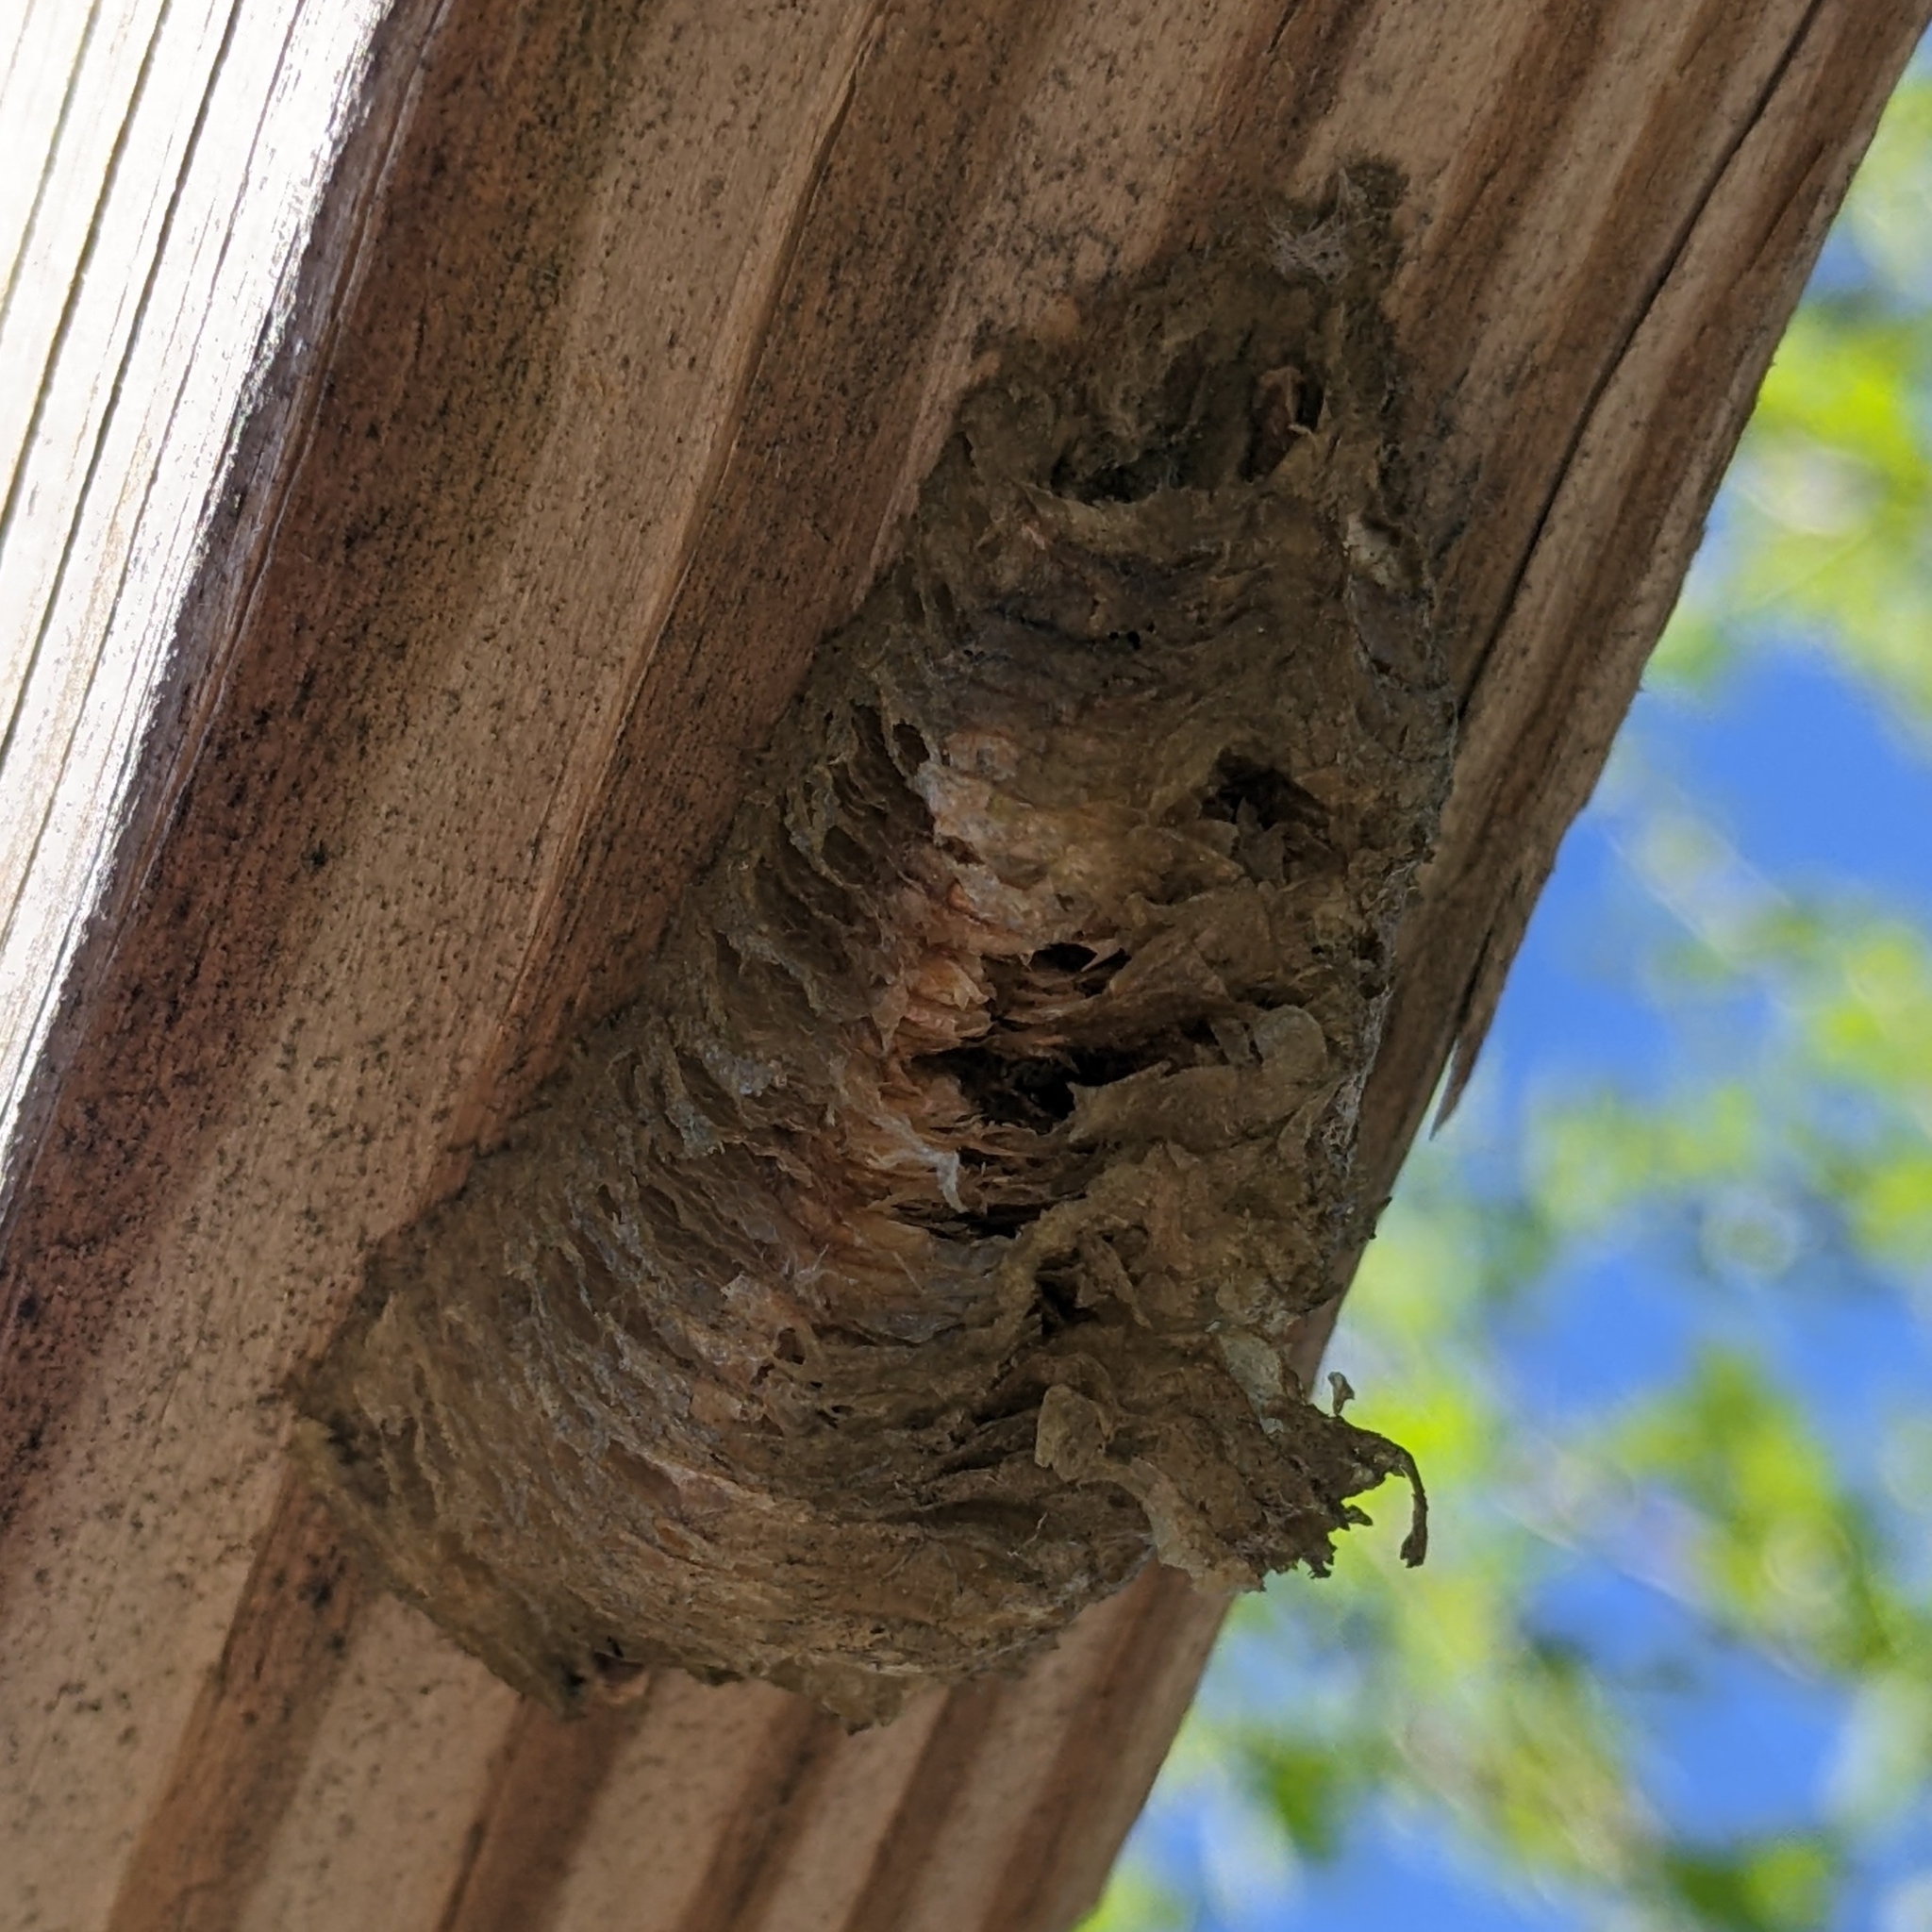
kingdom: Animalia
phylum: Arthropoda
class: Insecta
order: Mantodea
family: Mantidae
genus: Mantis
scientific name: Mantis religiosa
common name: Praying mantis
